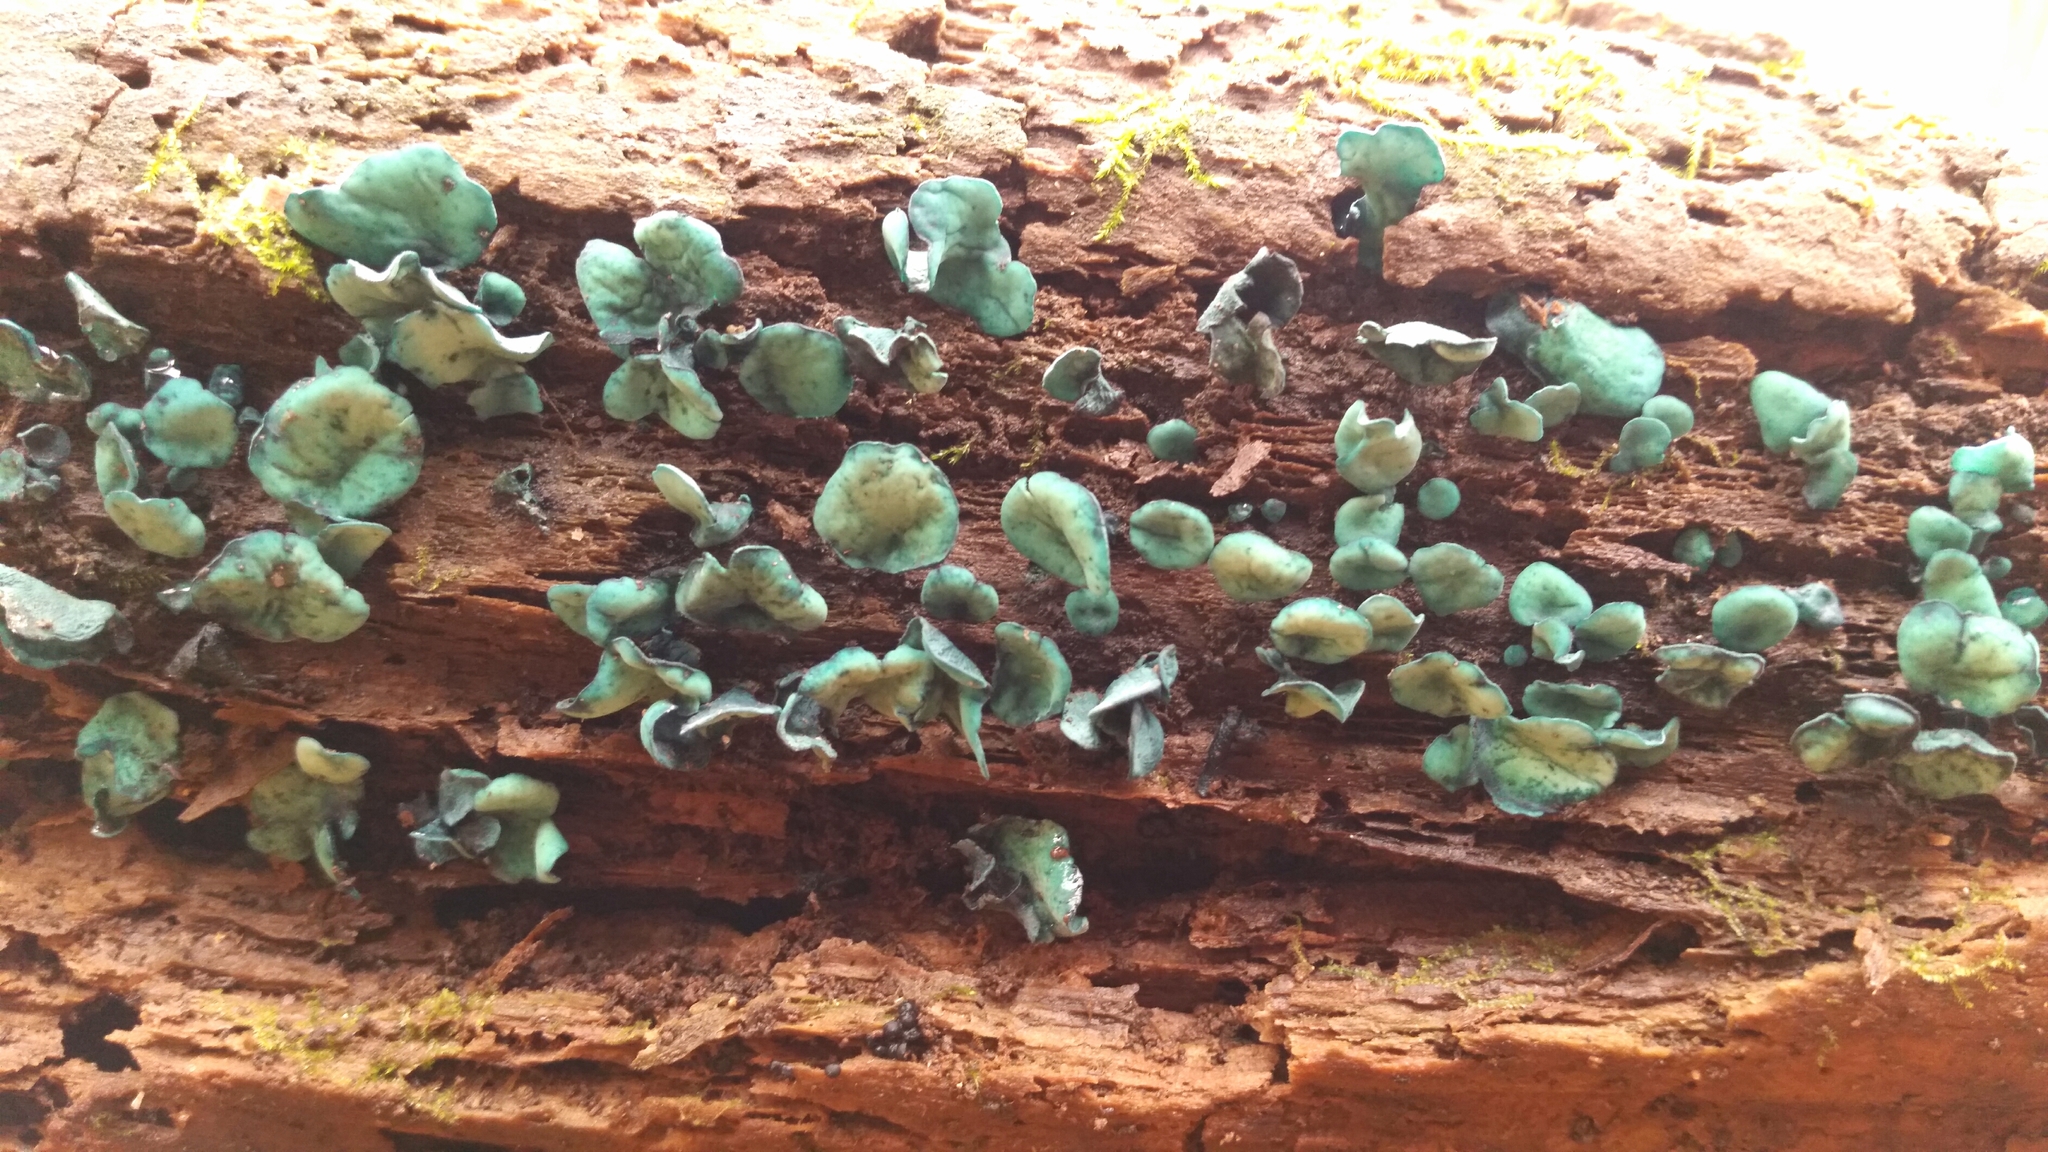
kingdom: Fungi
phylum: Ascomycota
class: Leotiomycetes
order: Helotiales
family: Chlorociboriaceae
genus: Chlorociboria
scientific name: Chlorociboria aeruginascens
